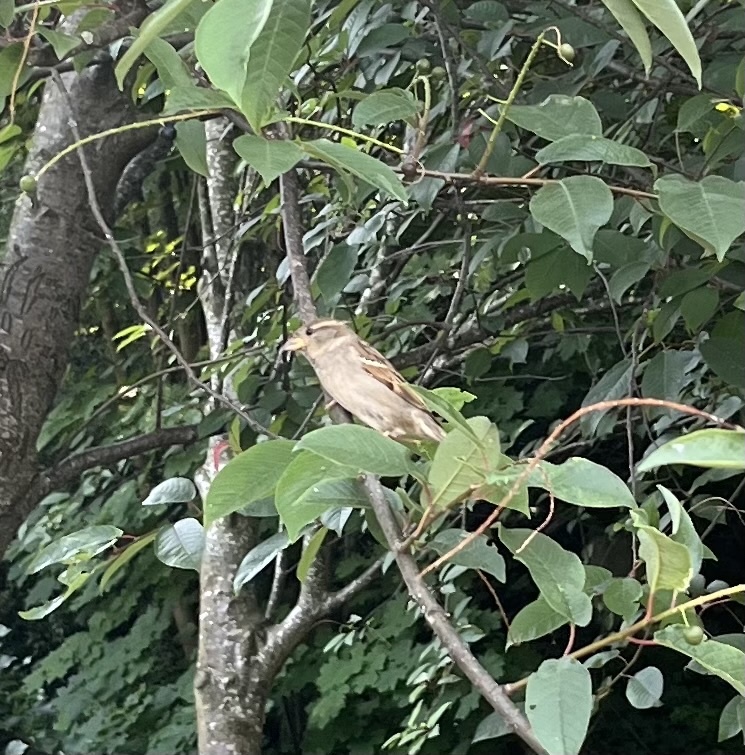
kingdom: Animalia
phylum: Chordata
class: Aves
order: Passeriformes
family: Passeridae
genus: Passer
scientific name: Passer domesticus
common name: House sparrow
